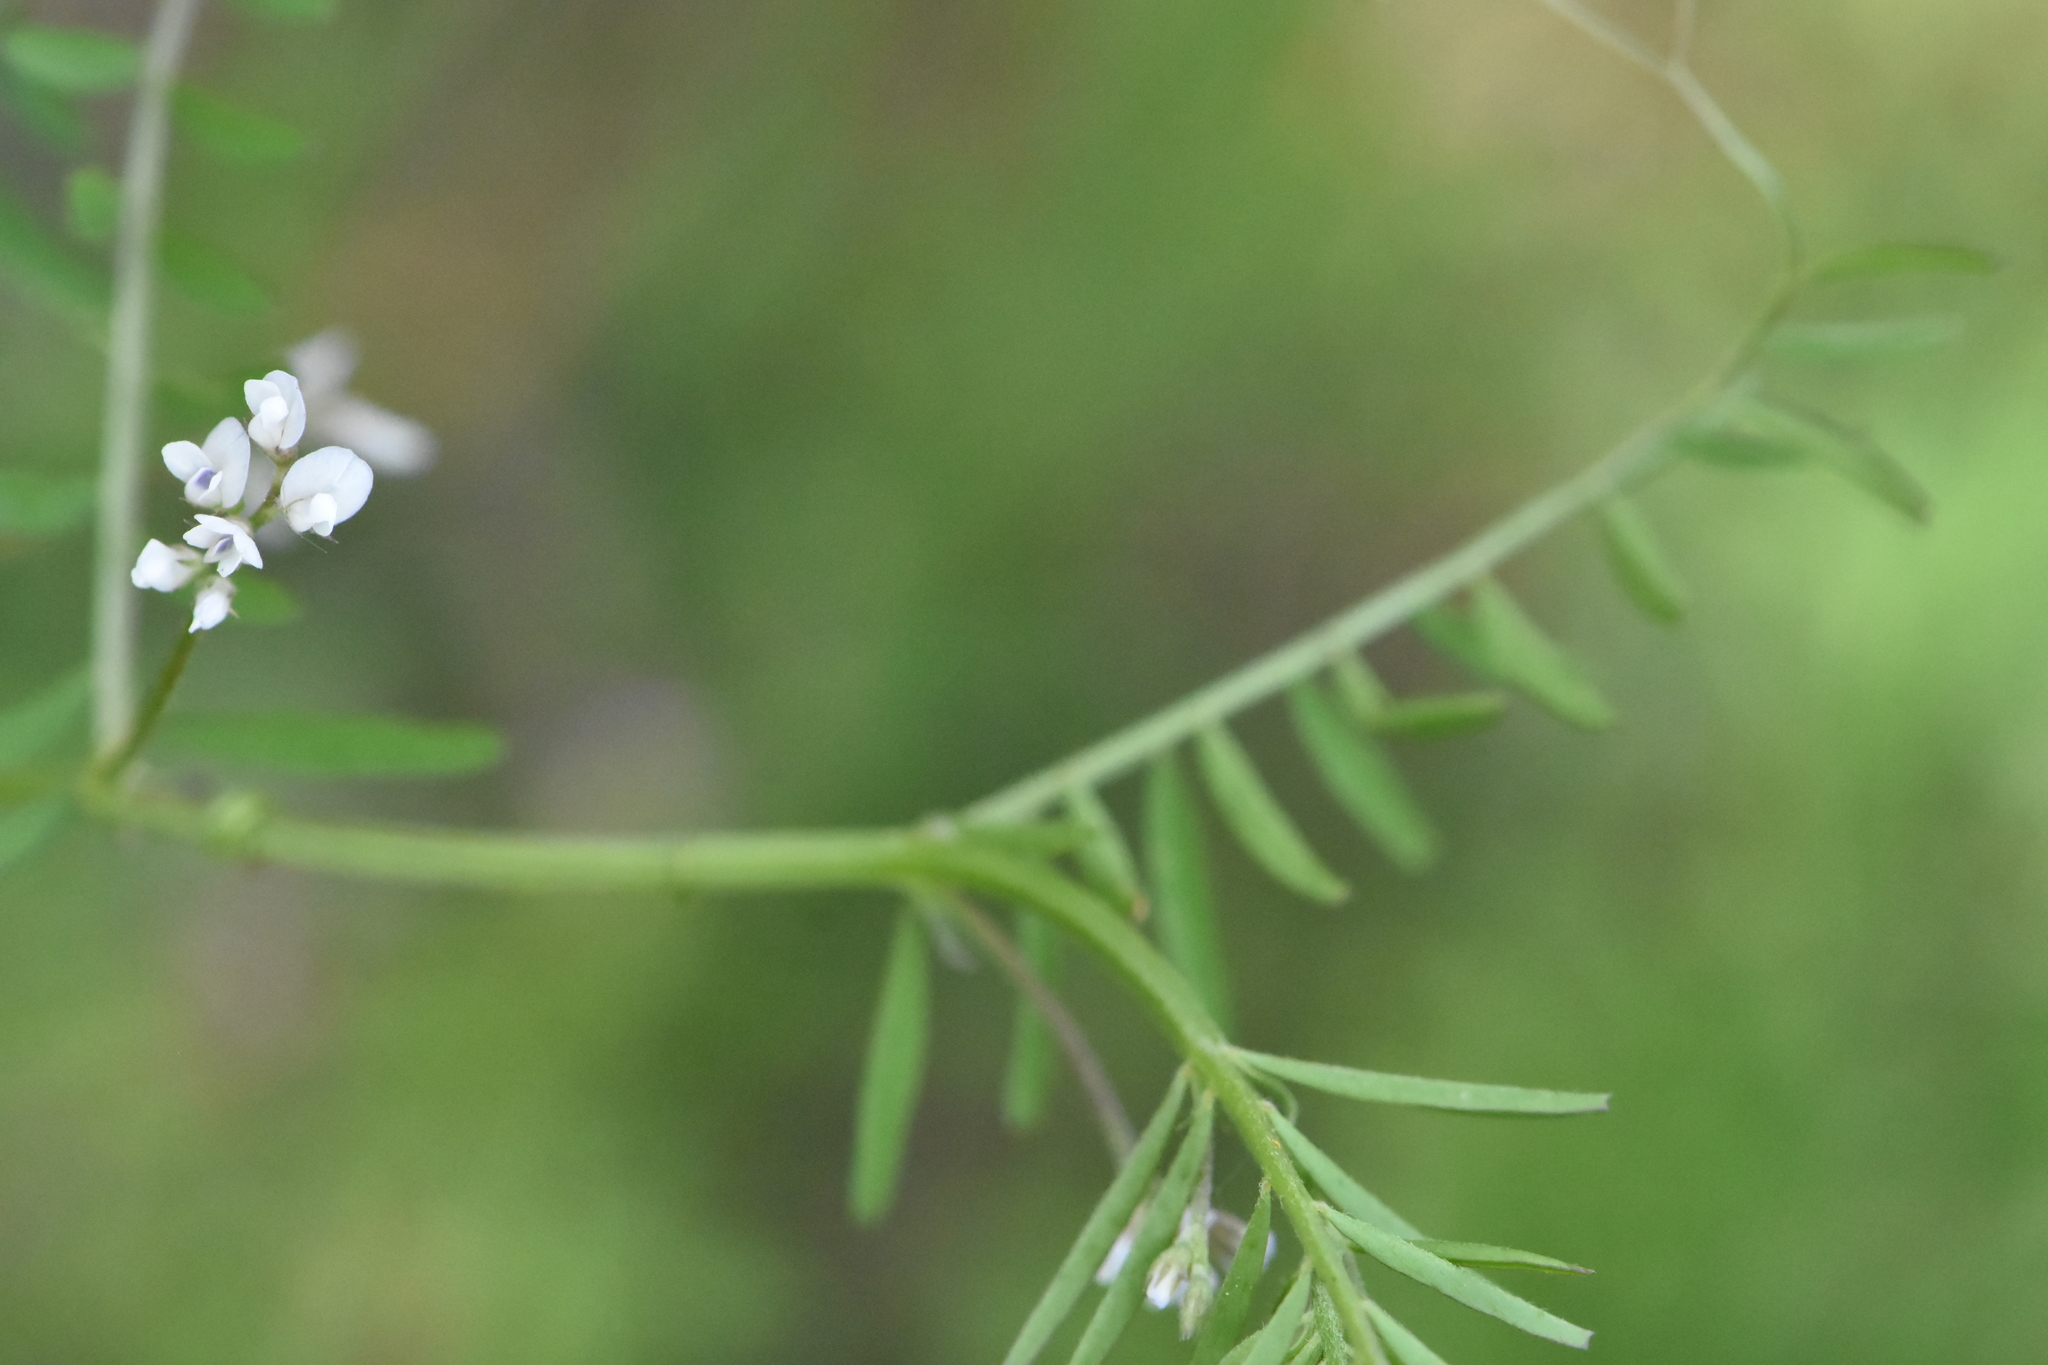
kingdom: Plantae
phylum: Tracheophyta
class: Magnoliopsida
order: Fabales
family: Fabaceae
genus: Vicia
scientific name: Vicia hirsuta
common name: Tiny vetch
